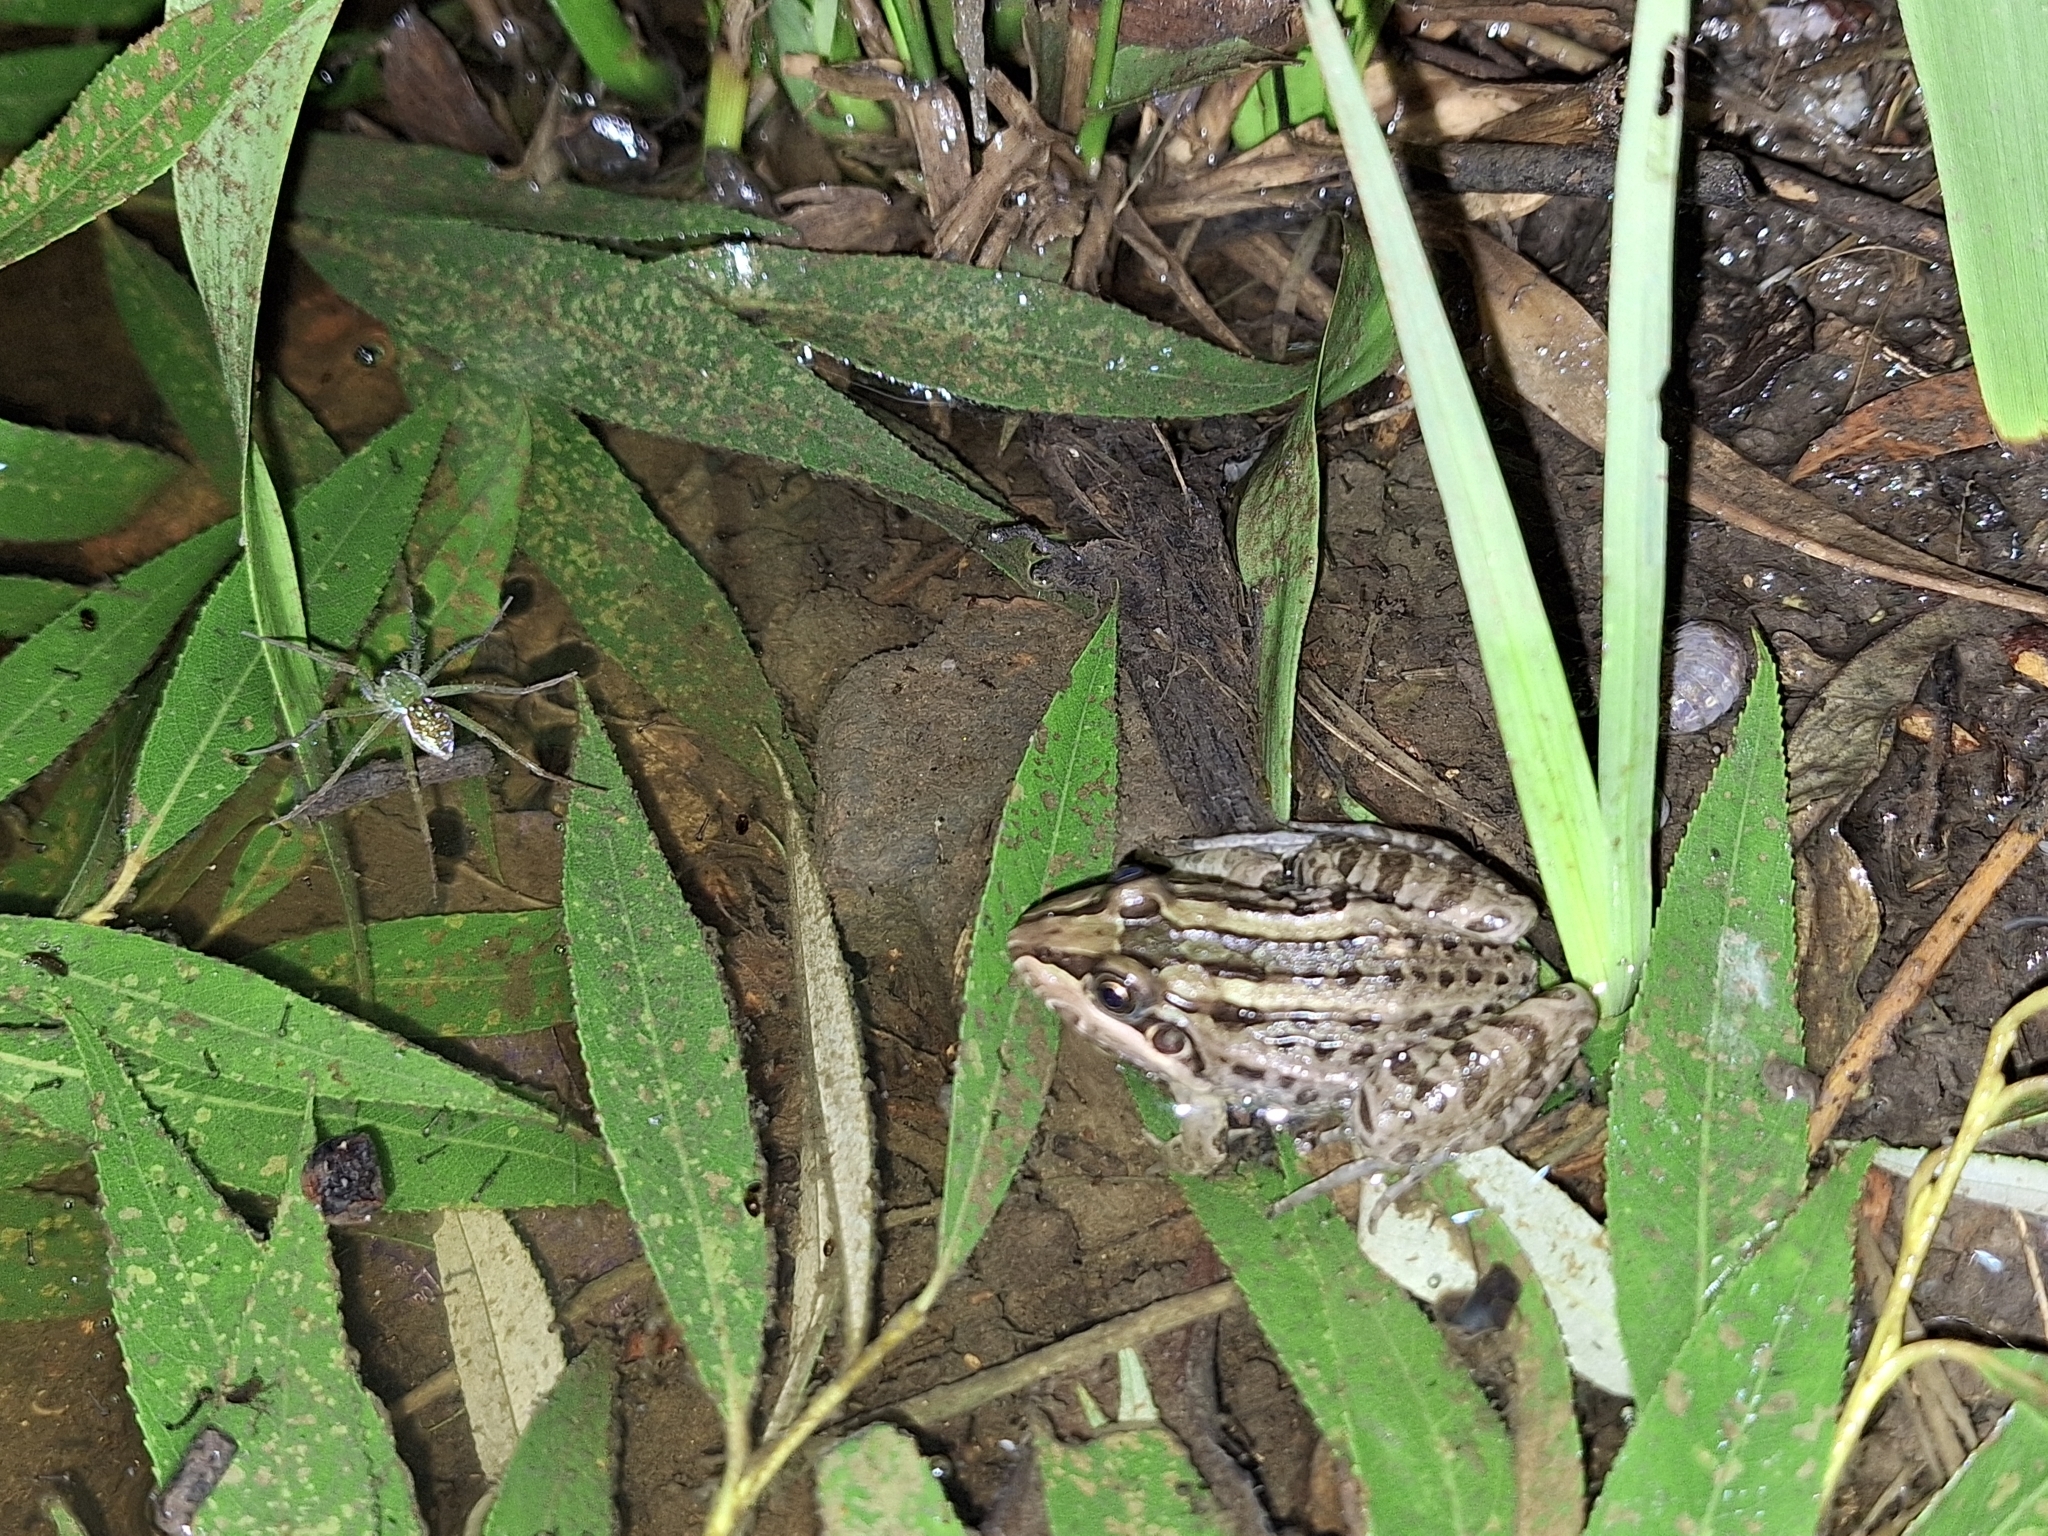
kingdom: Animalia
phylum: Chordata
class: Amphibia
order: Anura
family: Leptodactylidae
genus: Leptodactylus
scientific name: Leptodactylus luctator
